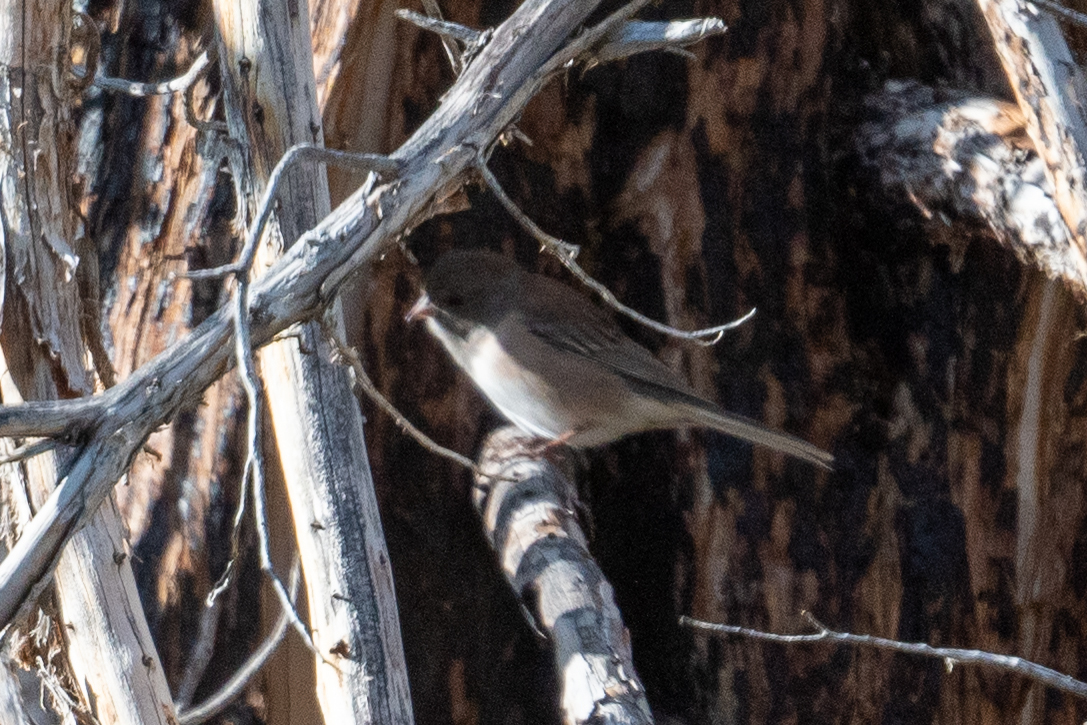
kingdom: Animalia
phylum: Chordata
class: Aves
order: Passeriformes
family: Passerellidae
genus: Junco
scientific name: Junco hyemalis
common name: Dark-eyed junco
